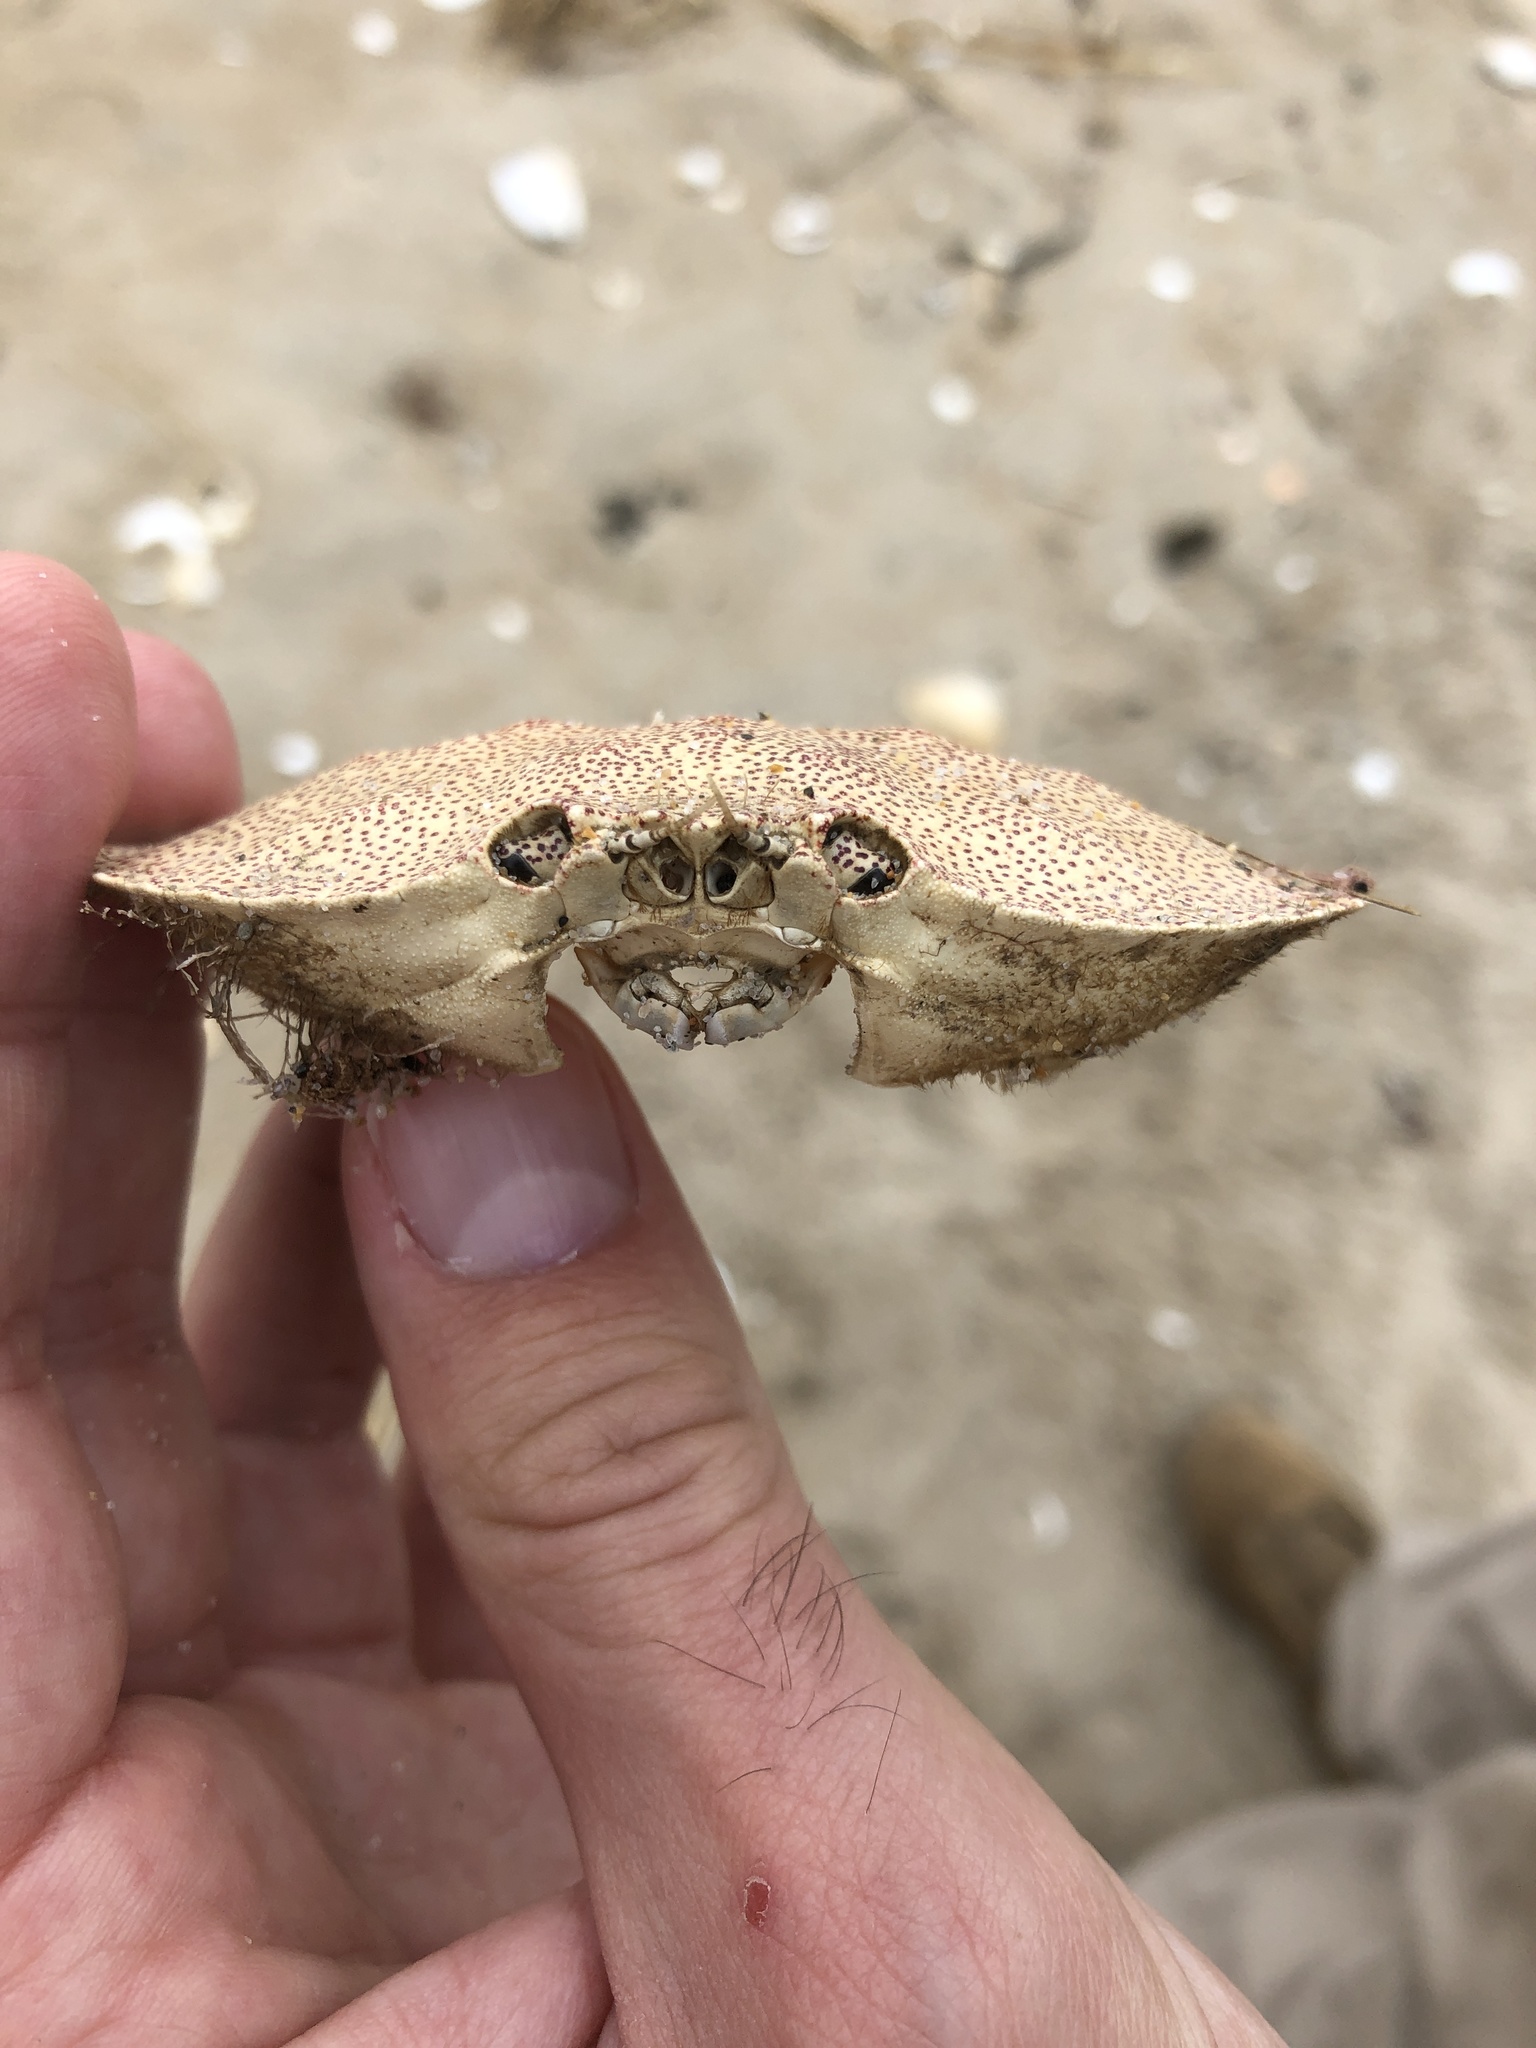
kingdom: Animalia
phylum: Arthropoda
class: Malacostraca
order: Decapoda
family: Cancridae
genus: Cancer
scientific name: Cancer irroratus
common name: Atlantic rock crab
